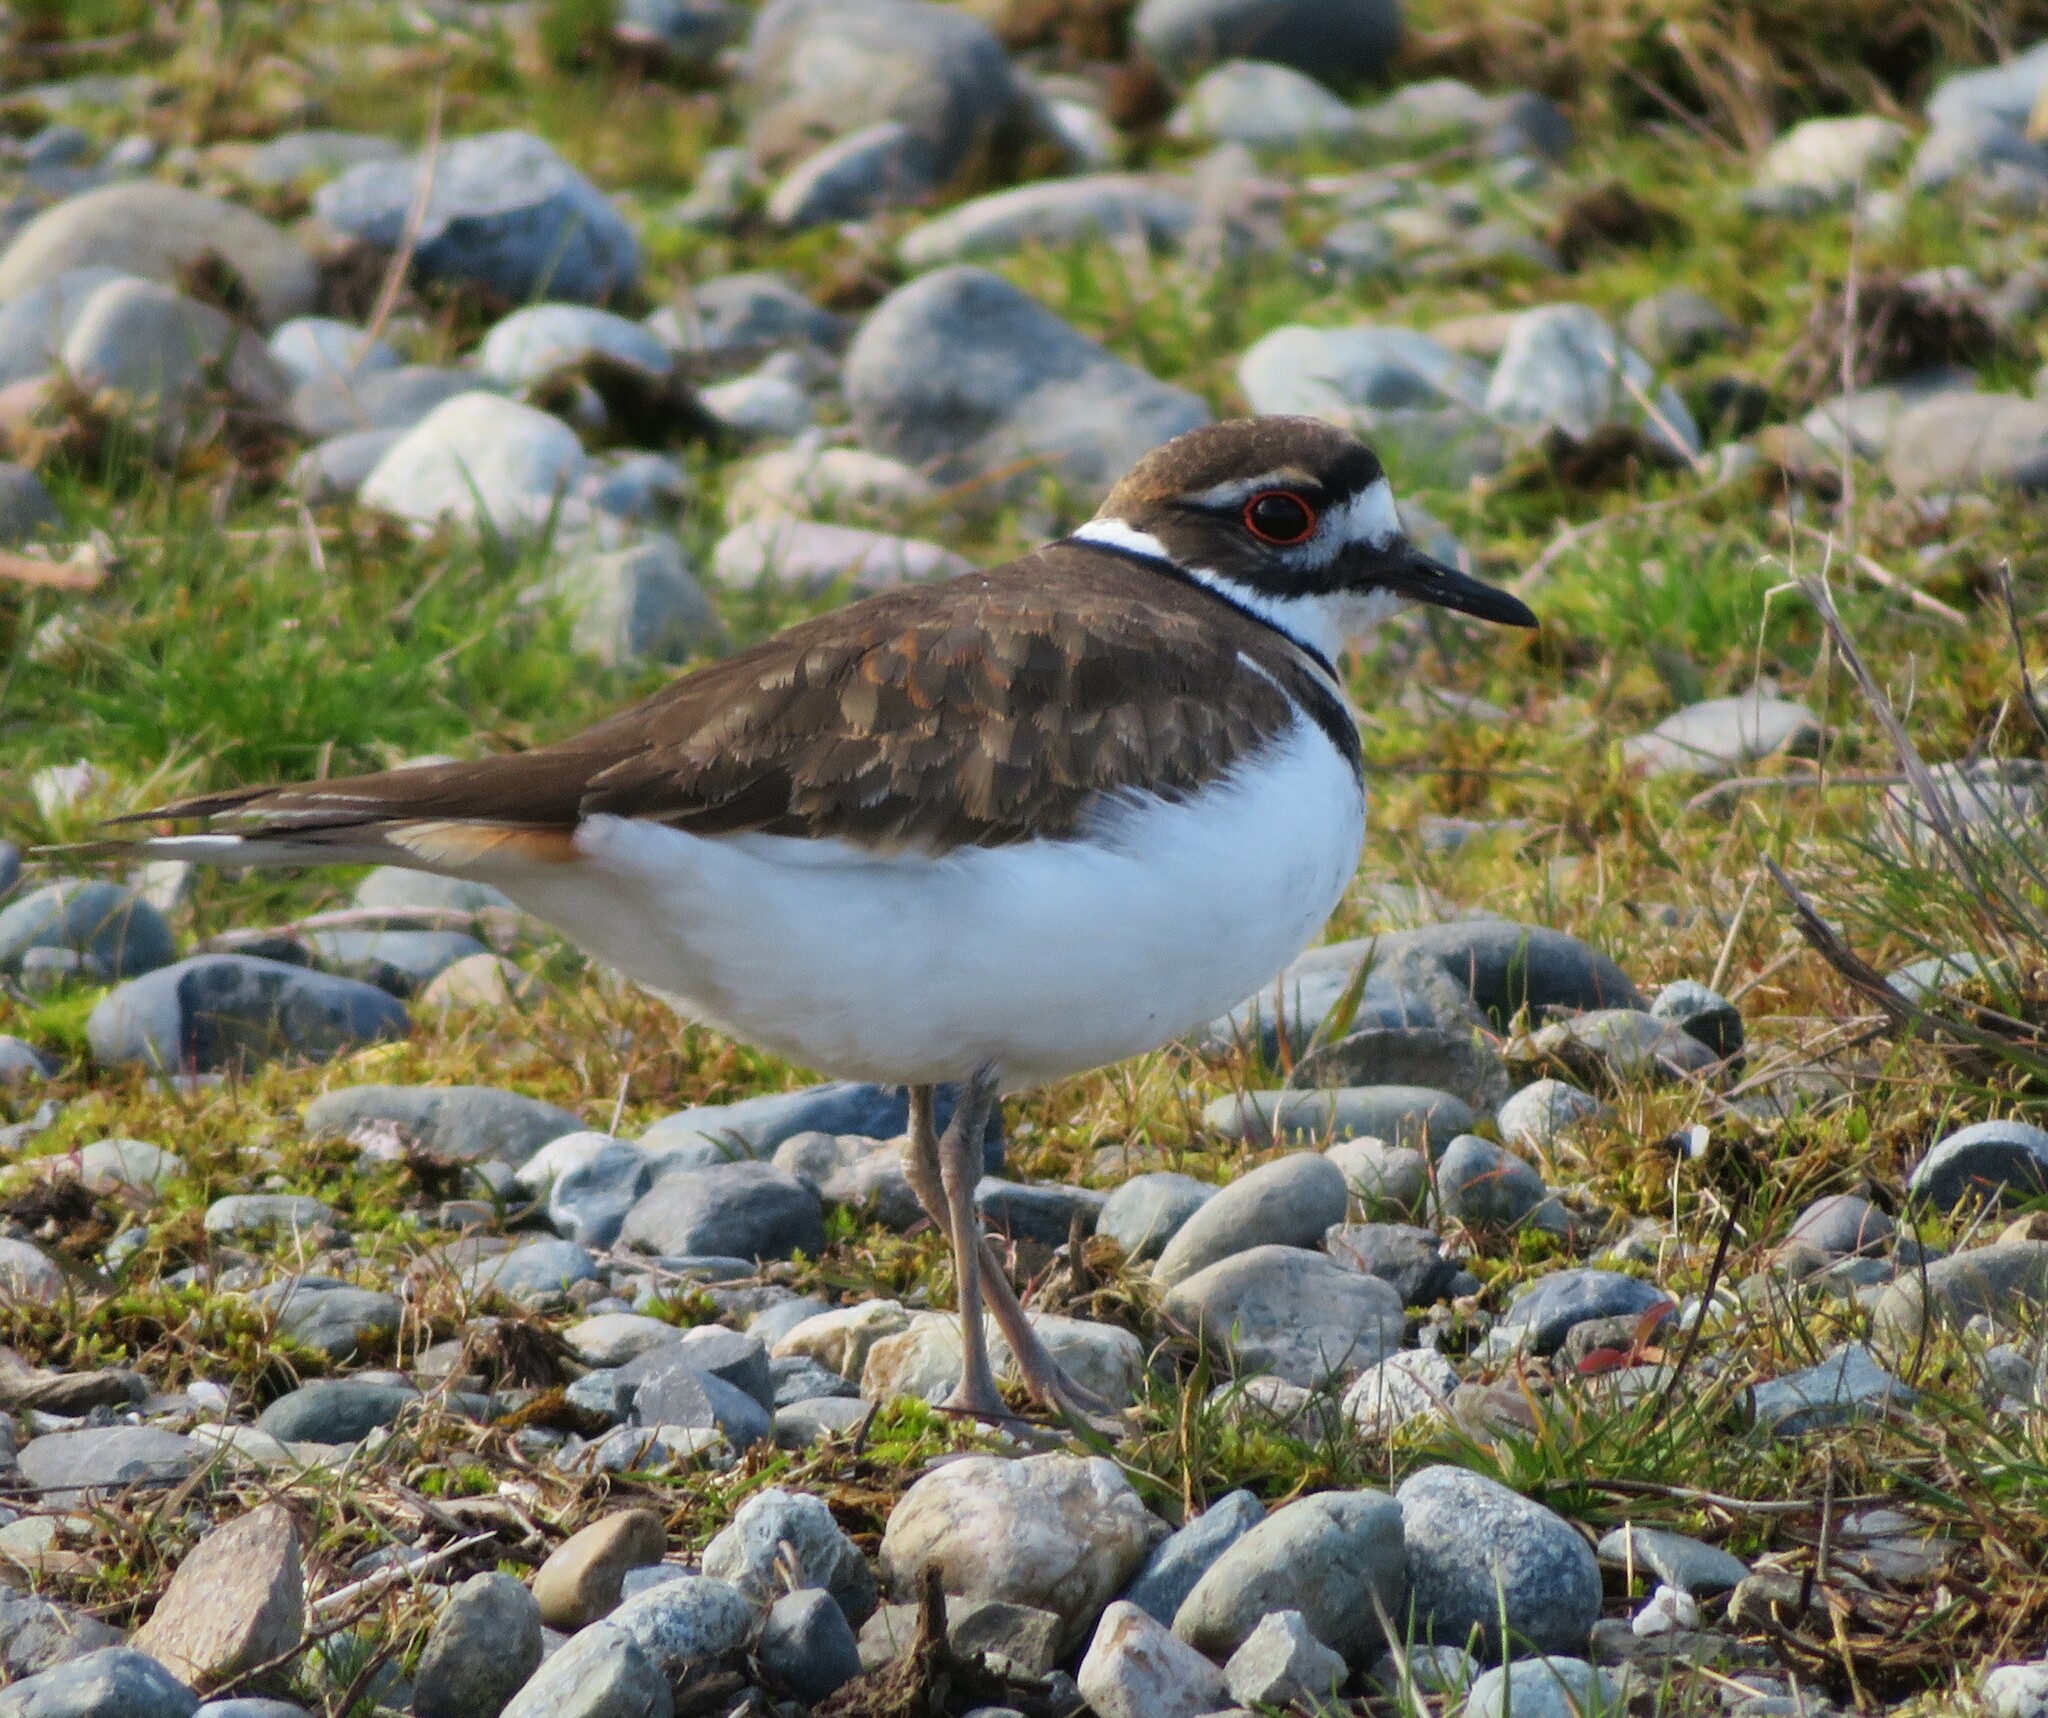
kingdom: Animalia
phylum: Chordata
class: Aves
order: Charadriiformes
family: Charadriidae
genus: Charadrius
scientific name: Charadrius vociferus
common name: Killdeer
